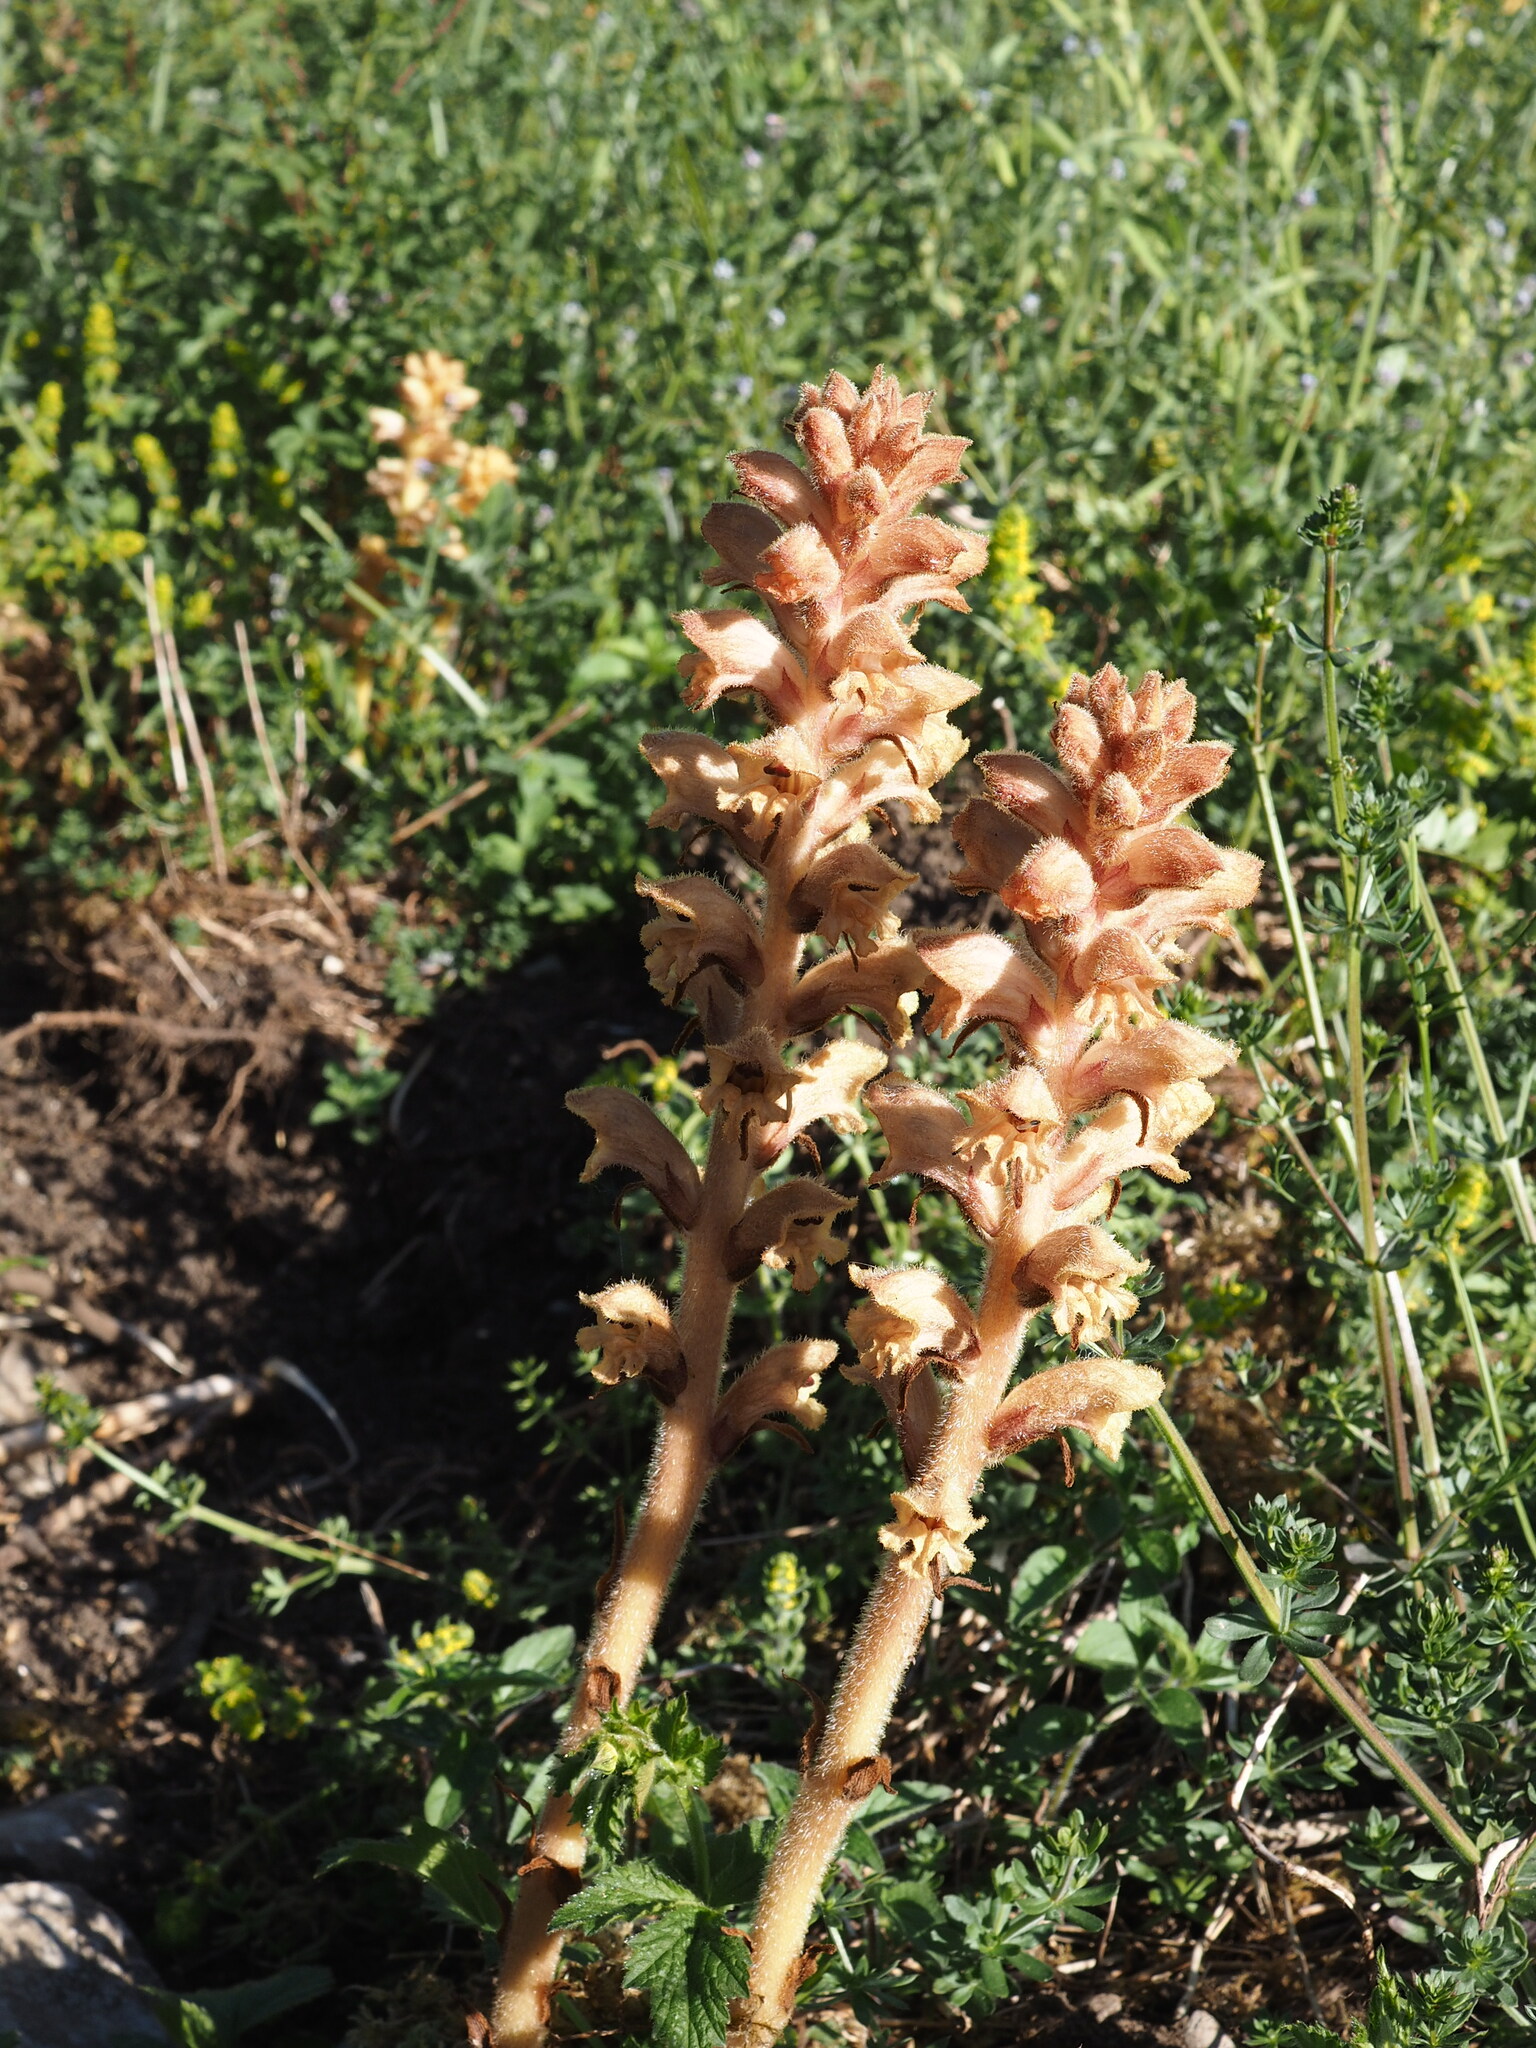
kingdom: Plantae
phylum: Tracheophyta
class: Magnoliopsida
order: Lamiales
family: Orobanchaceae
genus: Orobanche
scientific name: Orobanche caryophyllacea
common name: Bedstraw broomrape
